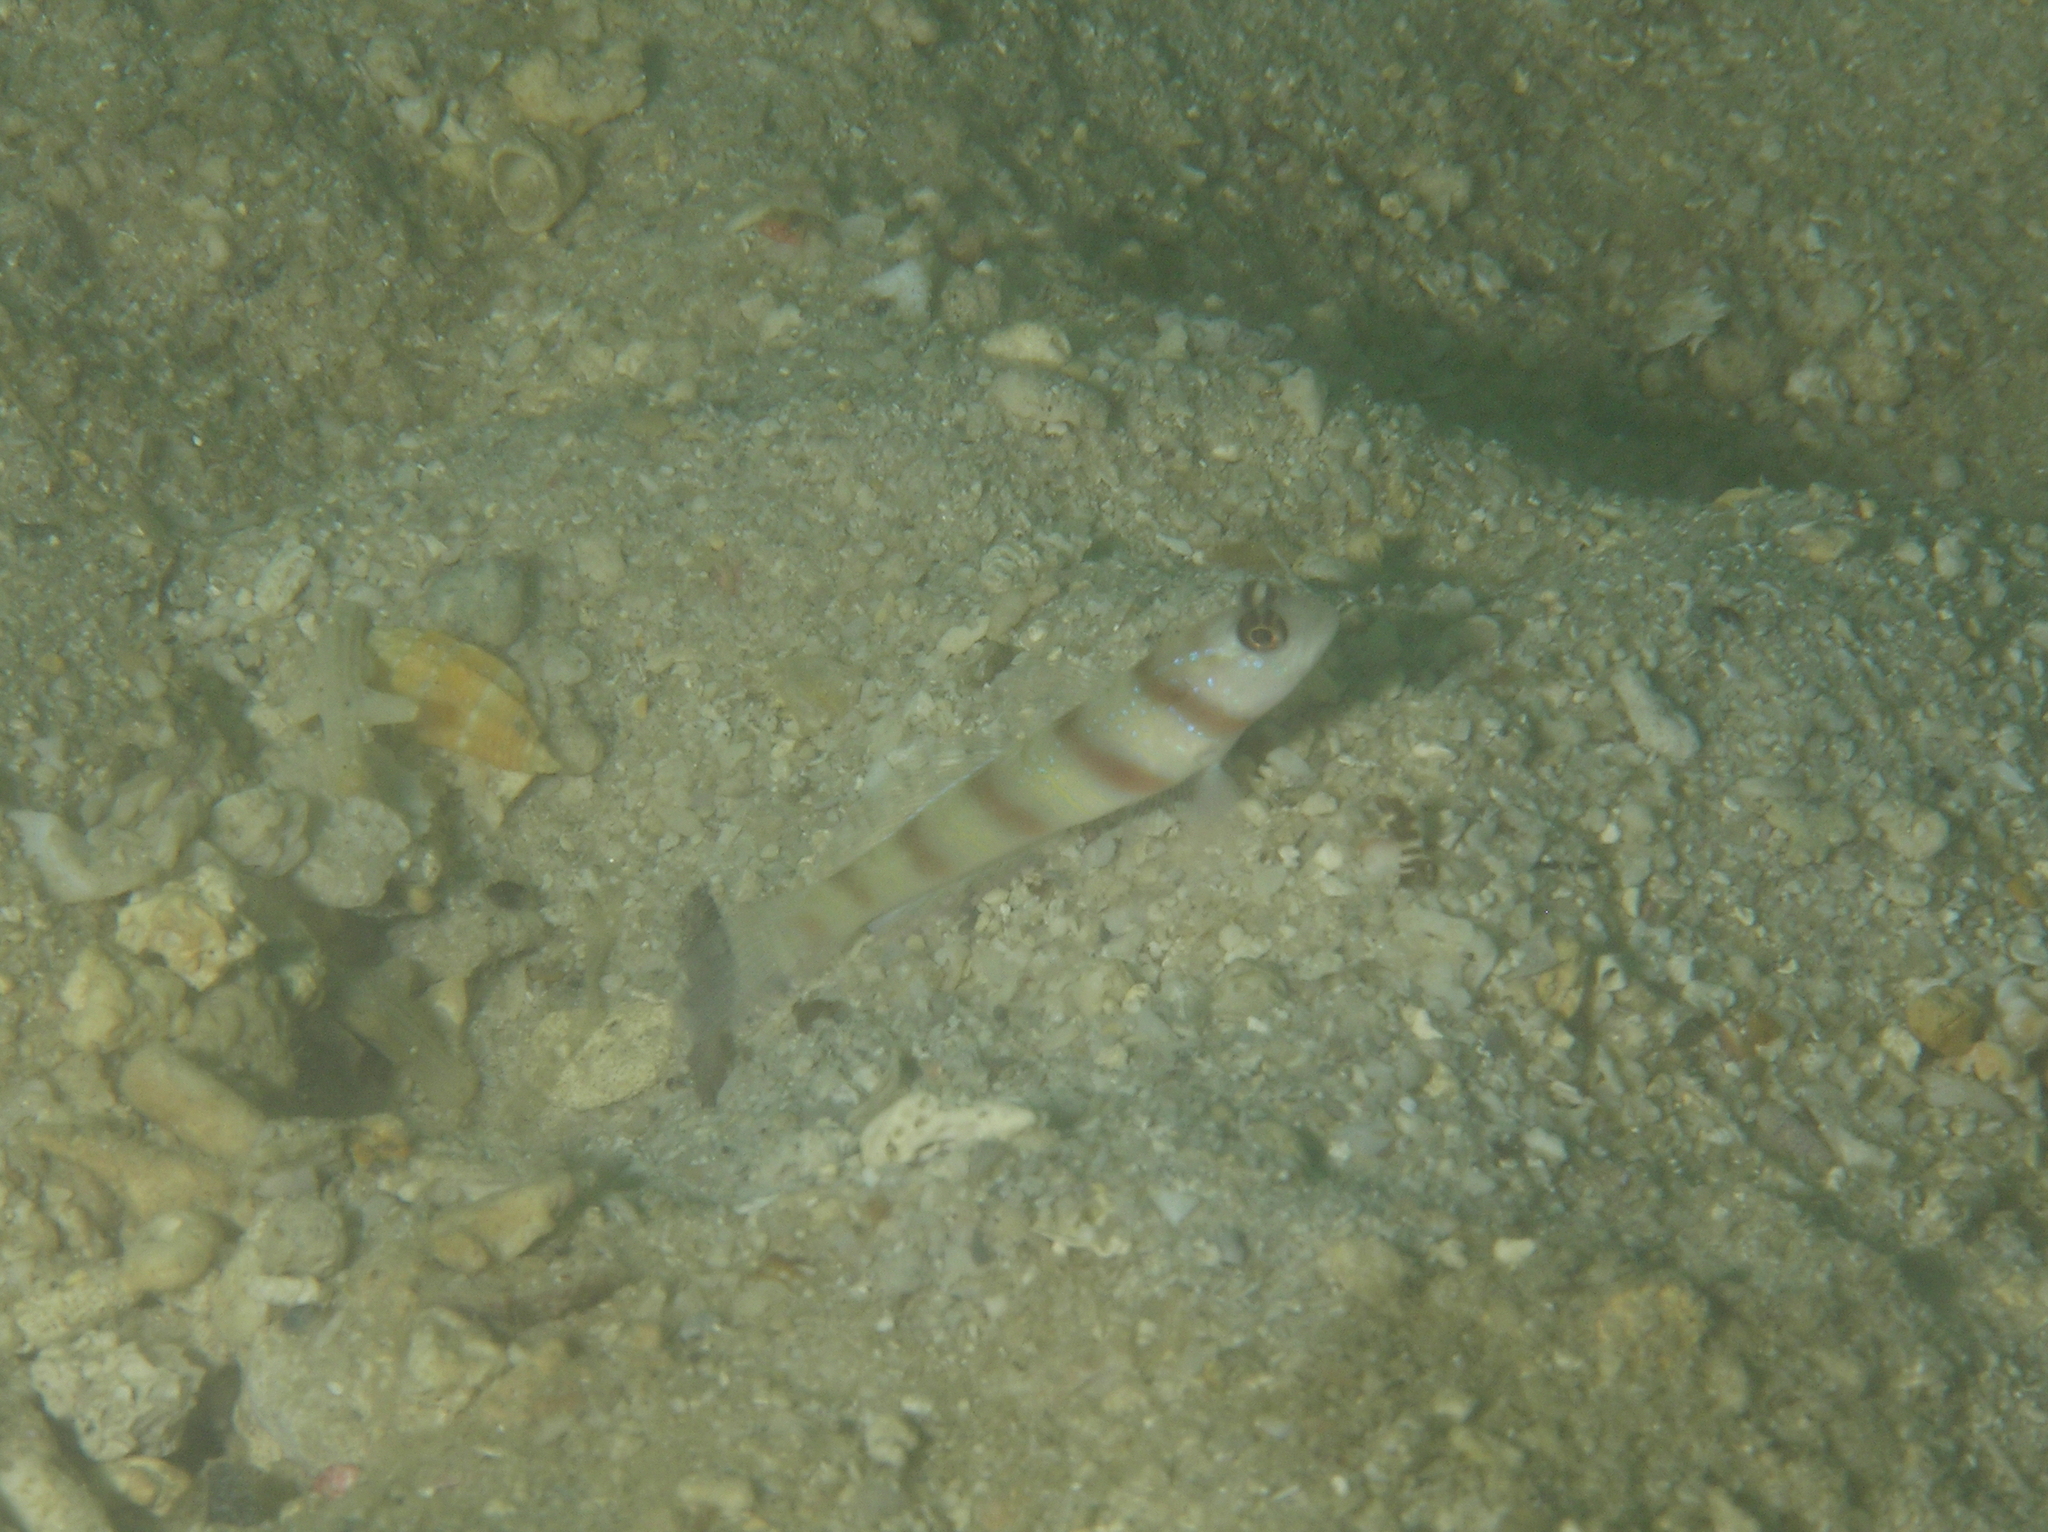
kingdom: Animalia
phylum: Chordata
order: Perciformes
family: Gobiidae
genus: Amblyeleotris
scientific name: Amblyeleotris steinitzi
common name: Steinitz' prawn-goby
